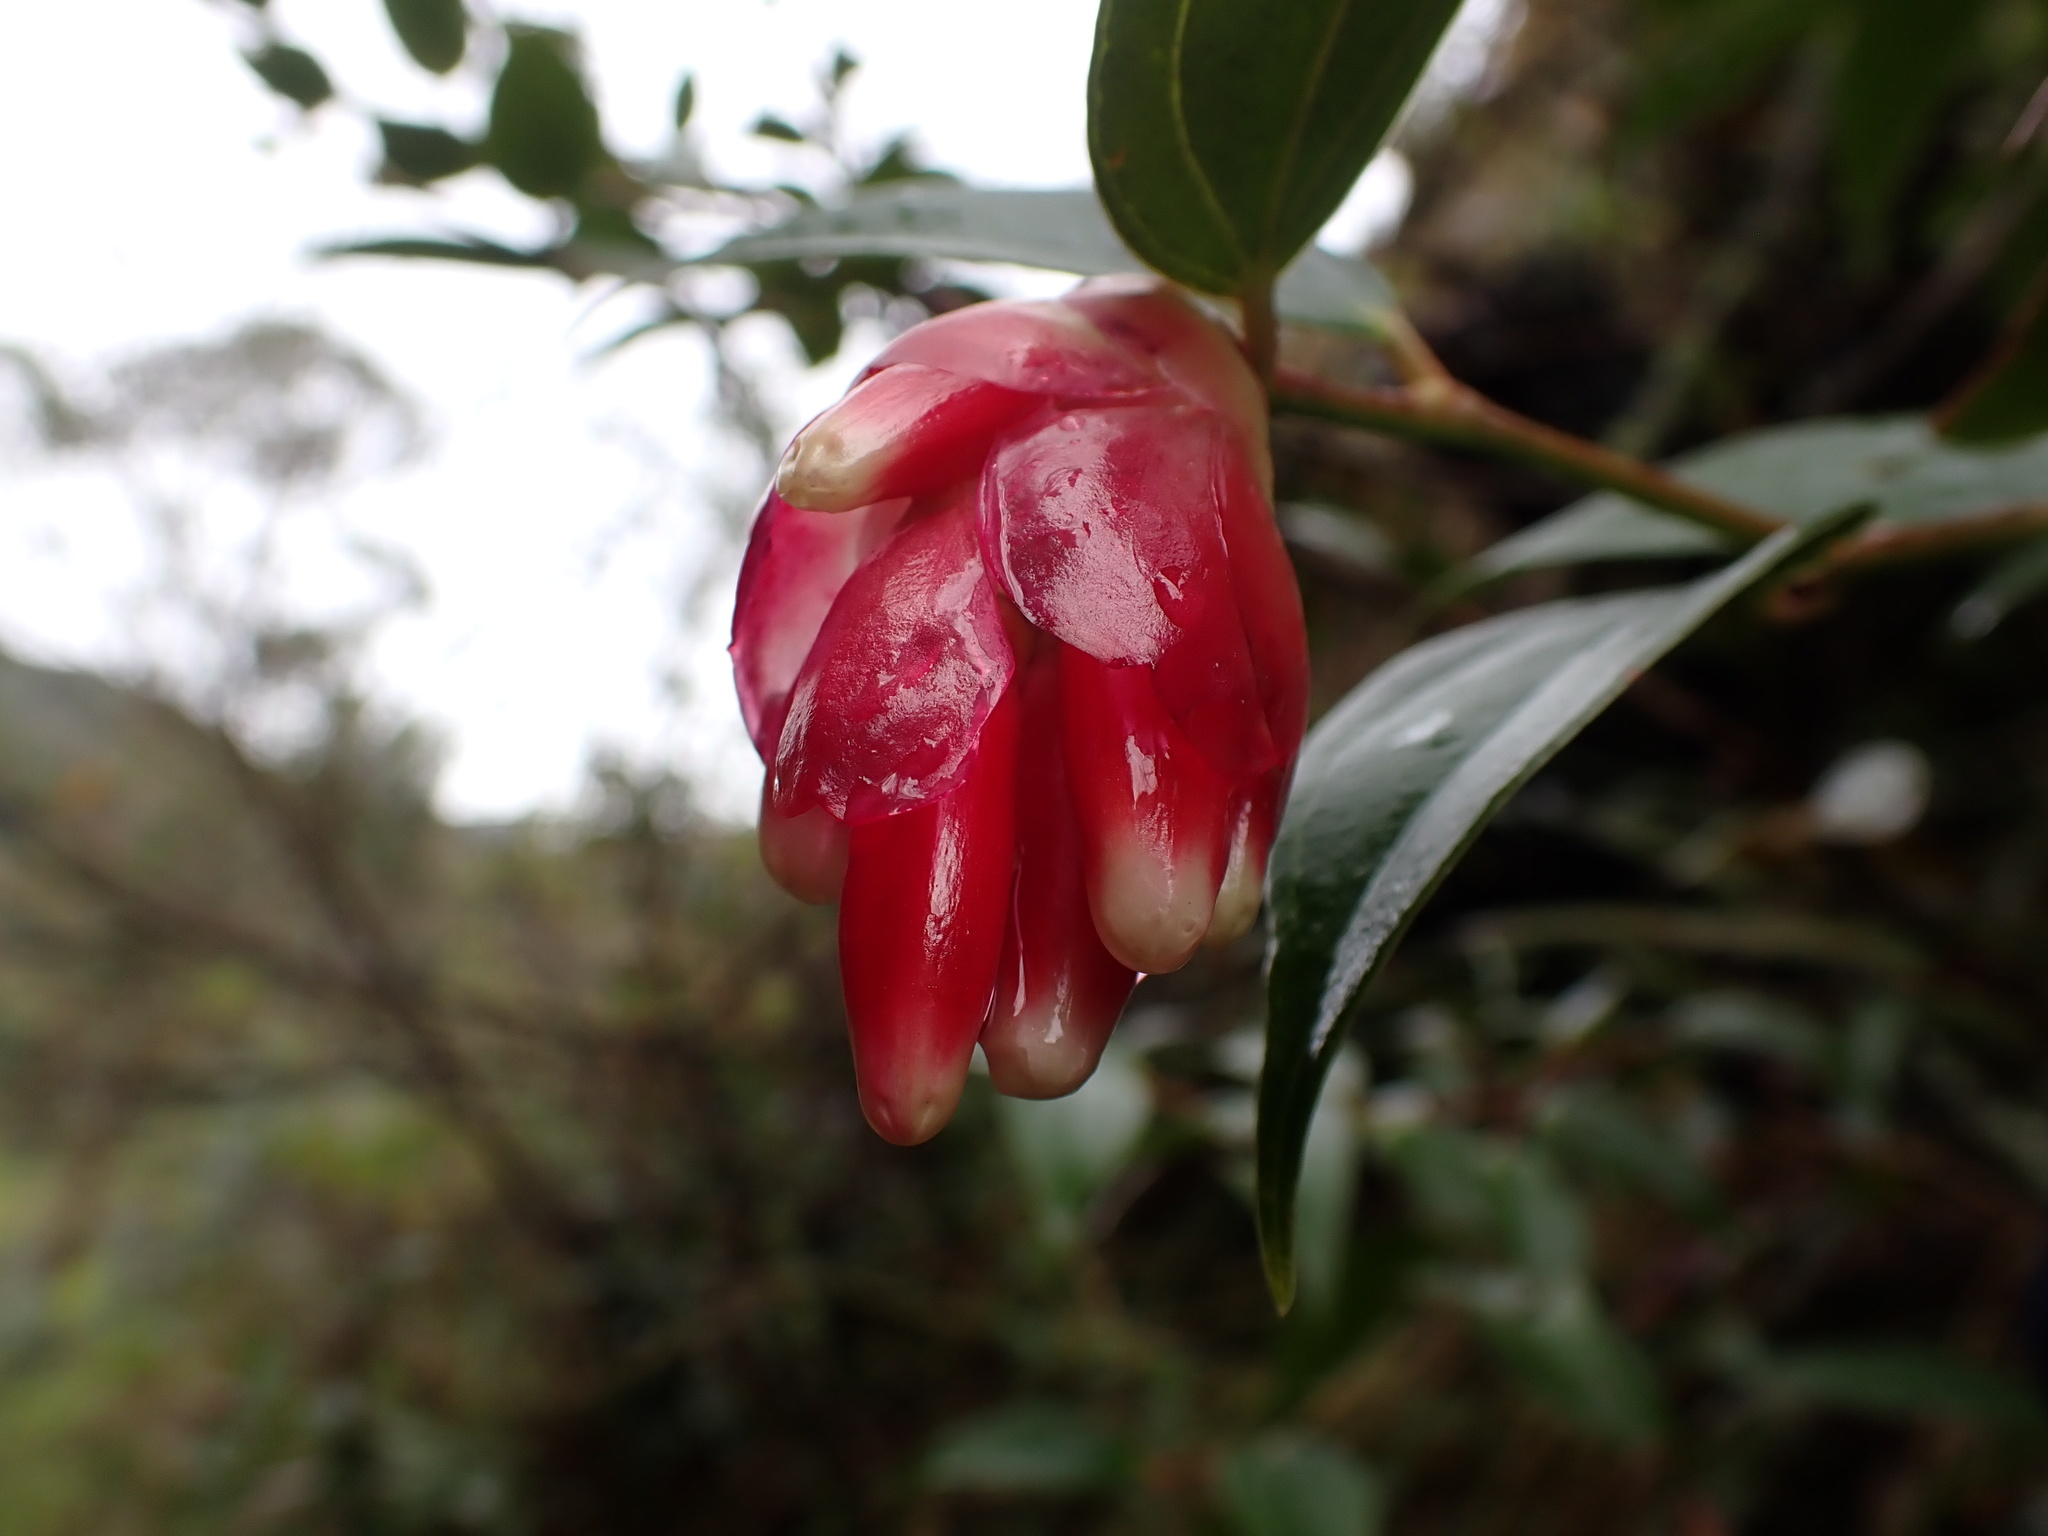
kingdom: Plantae
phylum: Tracheophyta
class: Magnoliopsida
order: Ericales
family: Ericaceae
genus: Cavendishia
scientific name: Cavendishia bracteata
